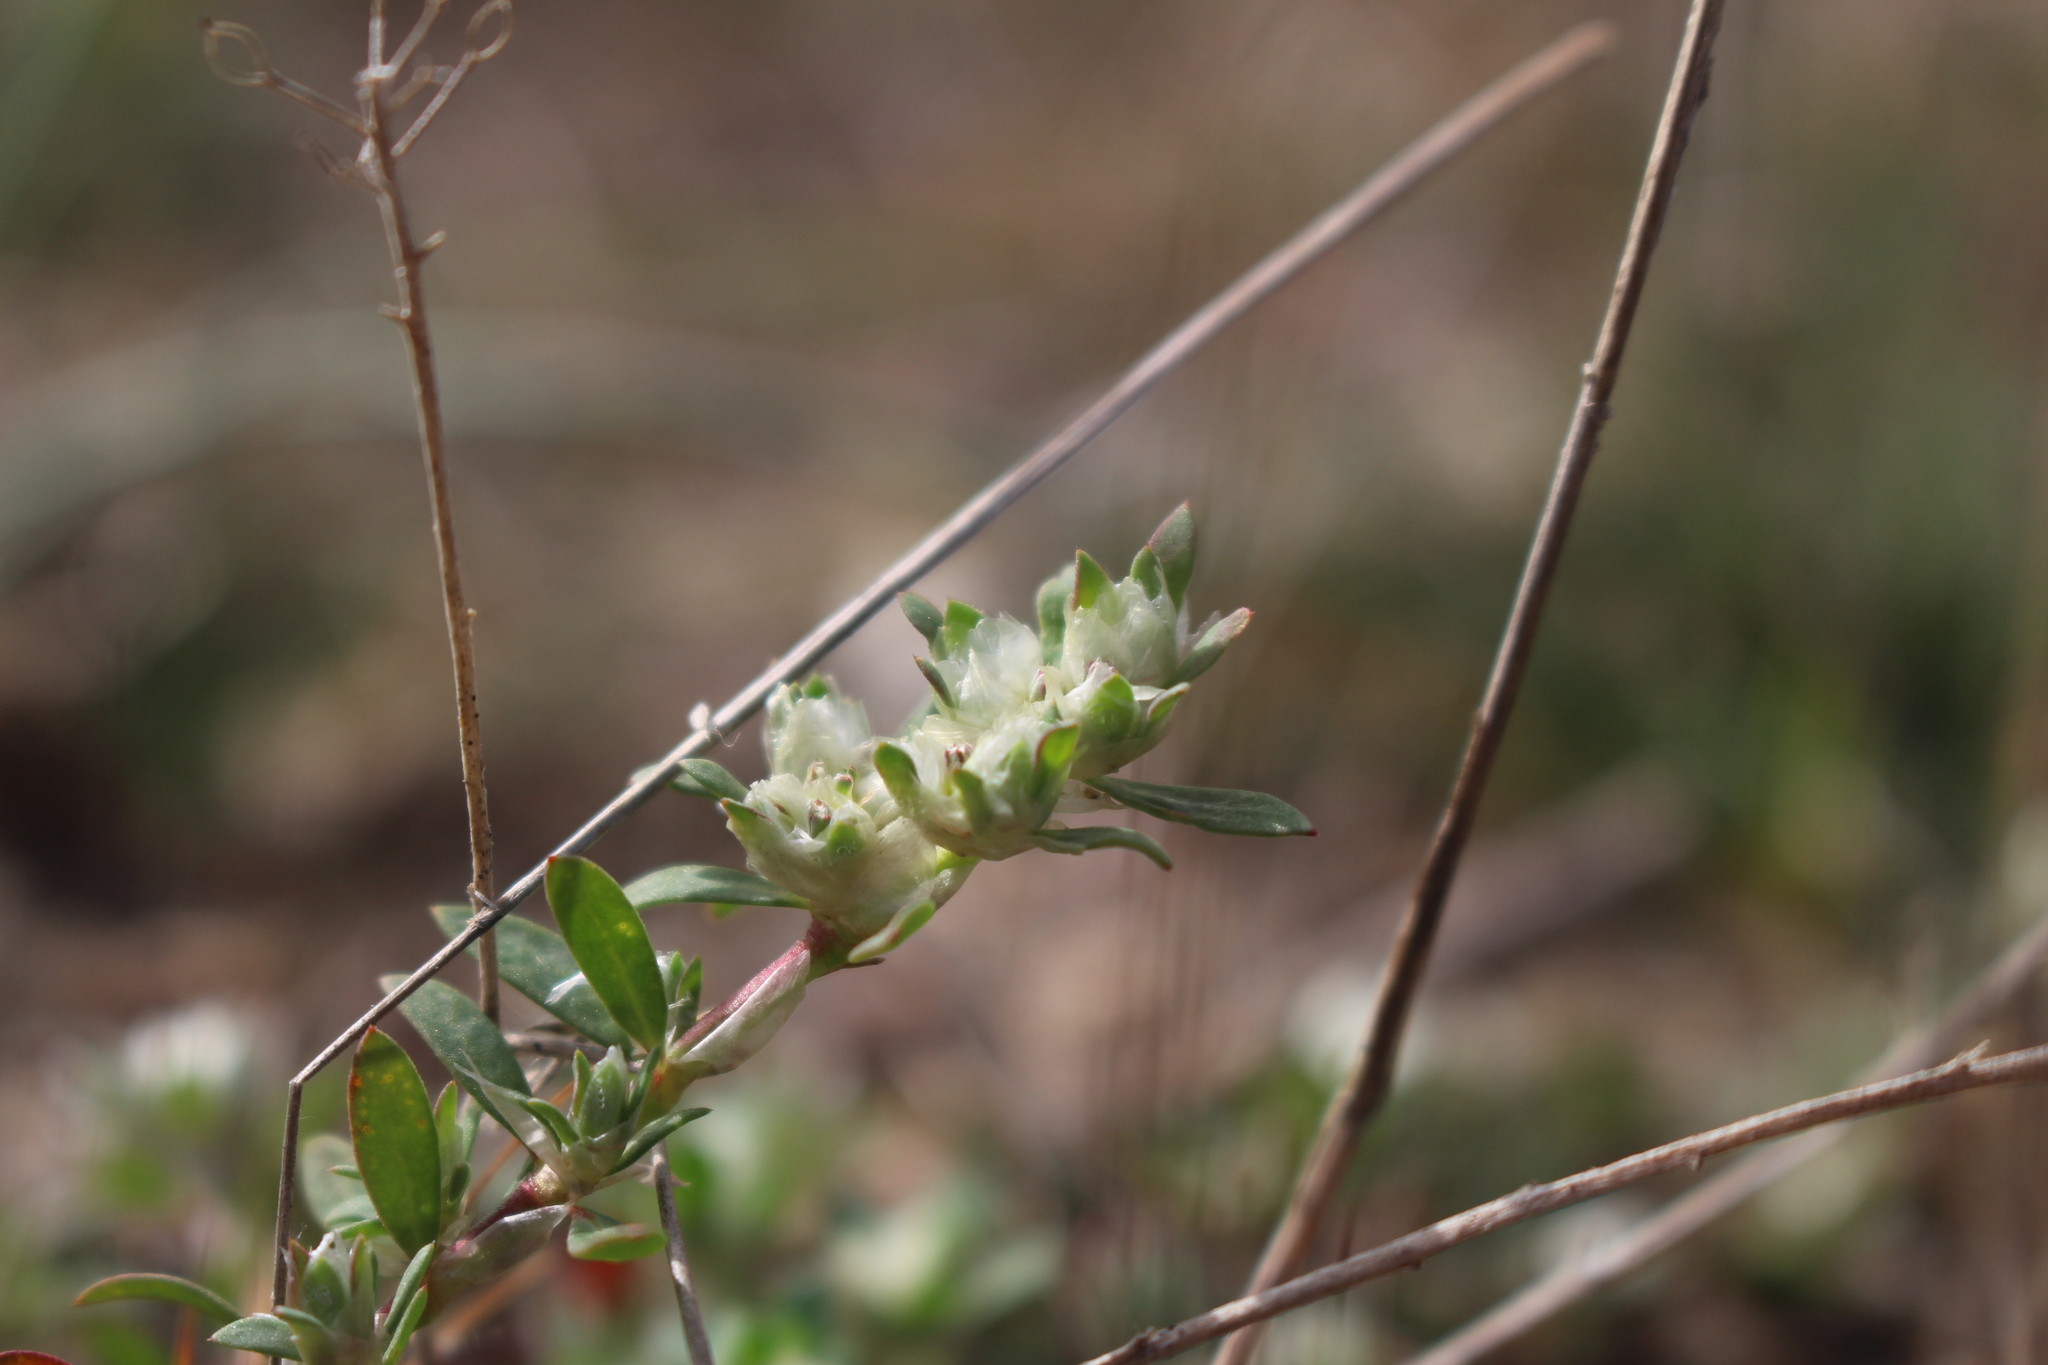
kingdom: Plantae
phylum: Tracheophyta
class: Magnoliopsida
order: Caryophyllales
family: Caryophyllaceae
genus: Paronychia
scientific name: Paronychia argentea
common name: Silver nailroot
